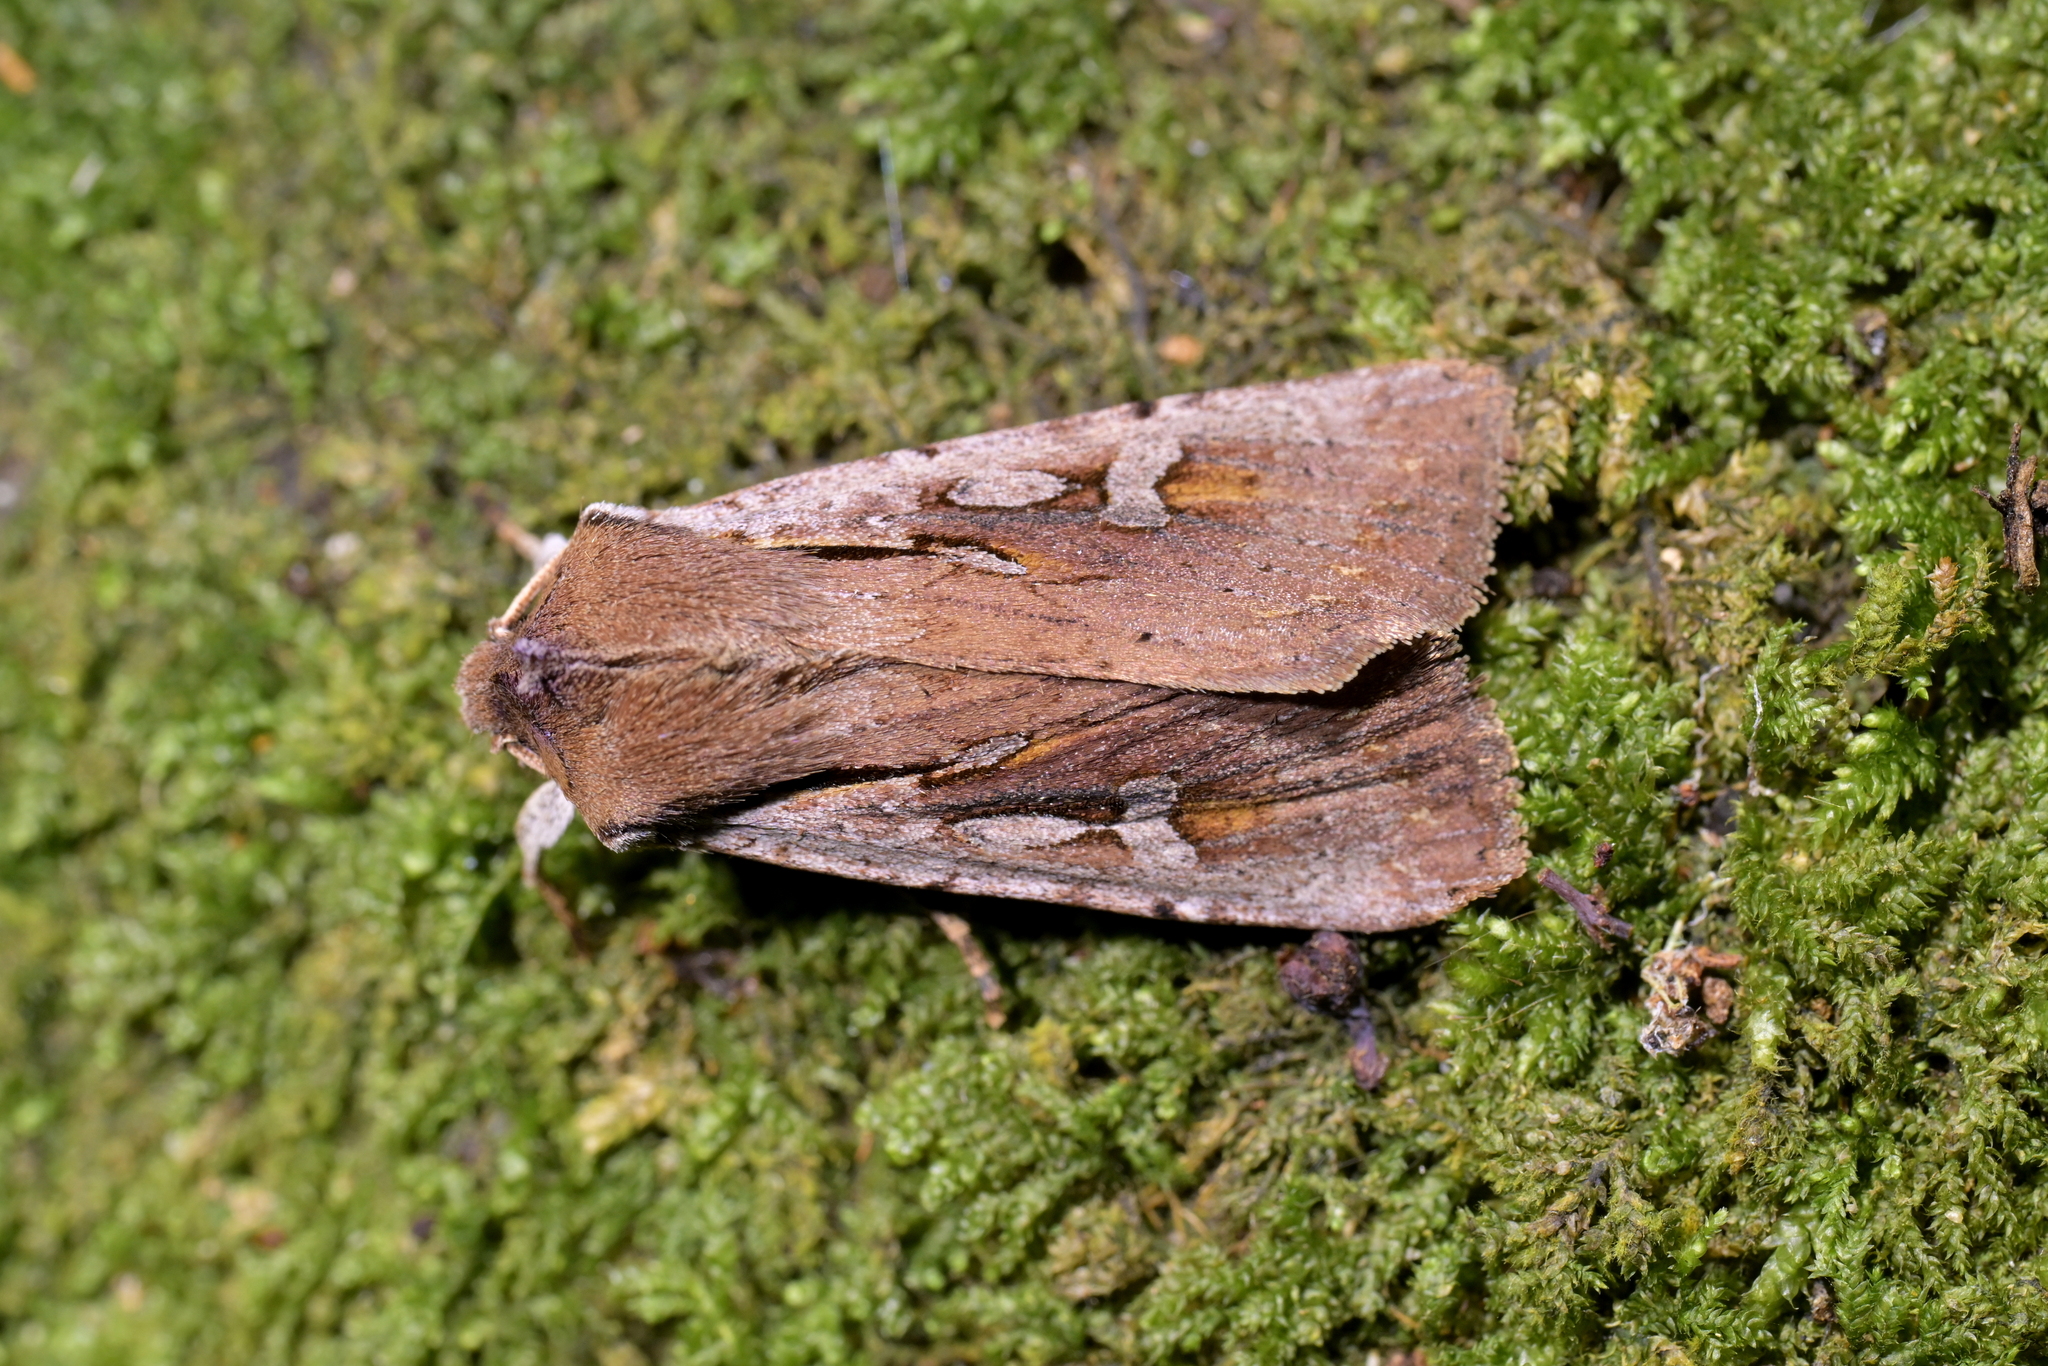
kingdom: Animalia
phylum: Arthropoda
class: Insecta
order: Lepidoptera
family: Noctuidae
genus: Ichneutica
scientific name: Ichneutica atristriga
